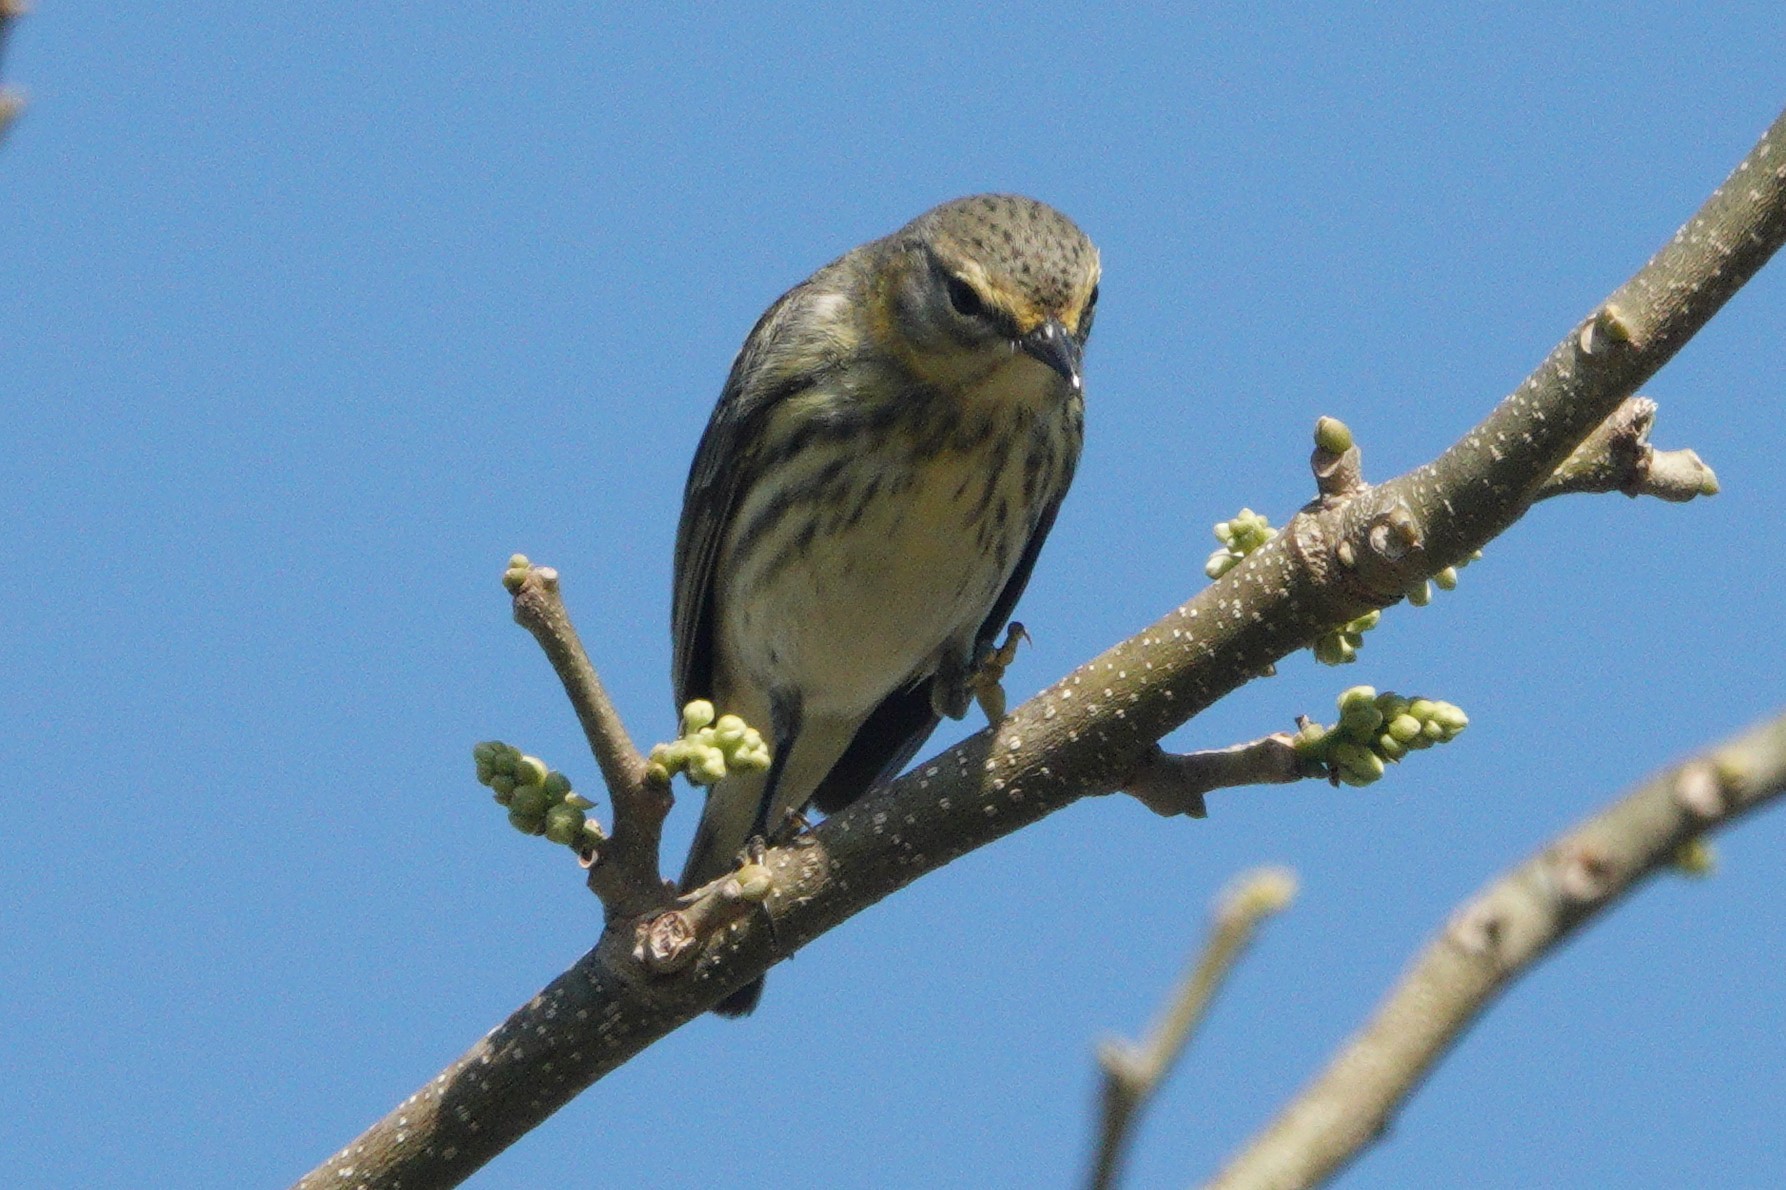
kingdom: Animalia
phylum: Chordata
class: Aves
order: Passeriformes
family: Parulidae
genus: Setophaga
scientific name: Setophaga tigrina
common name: Cape may warbler
